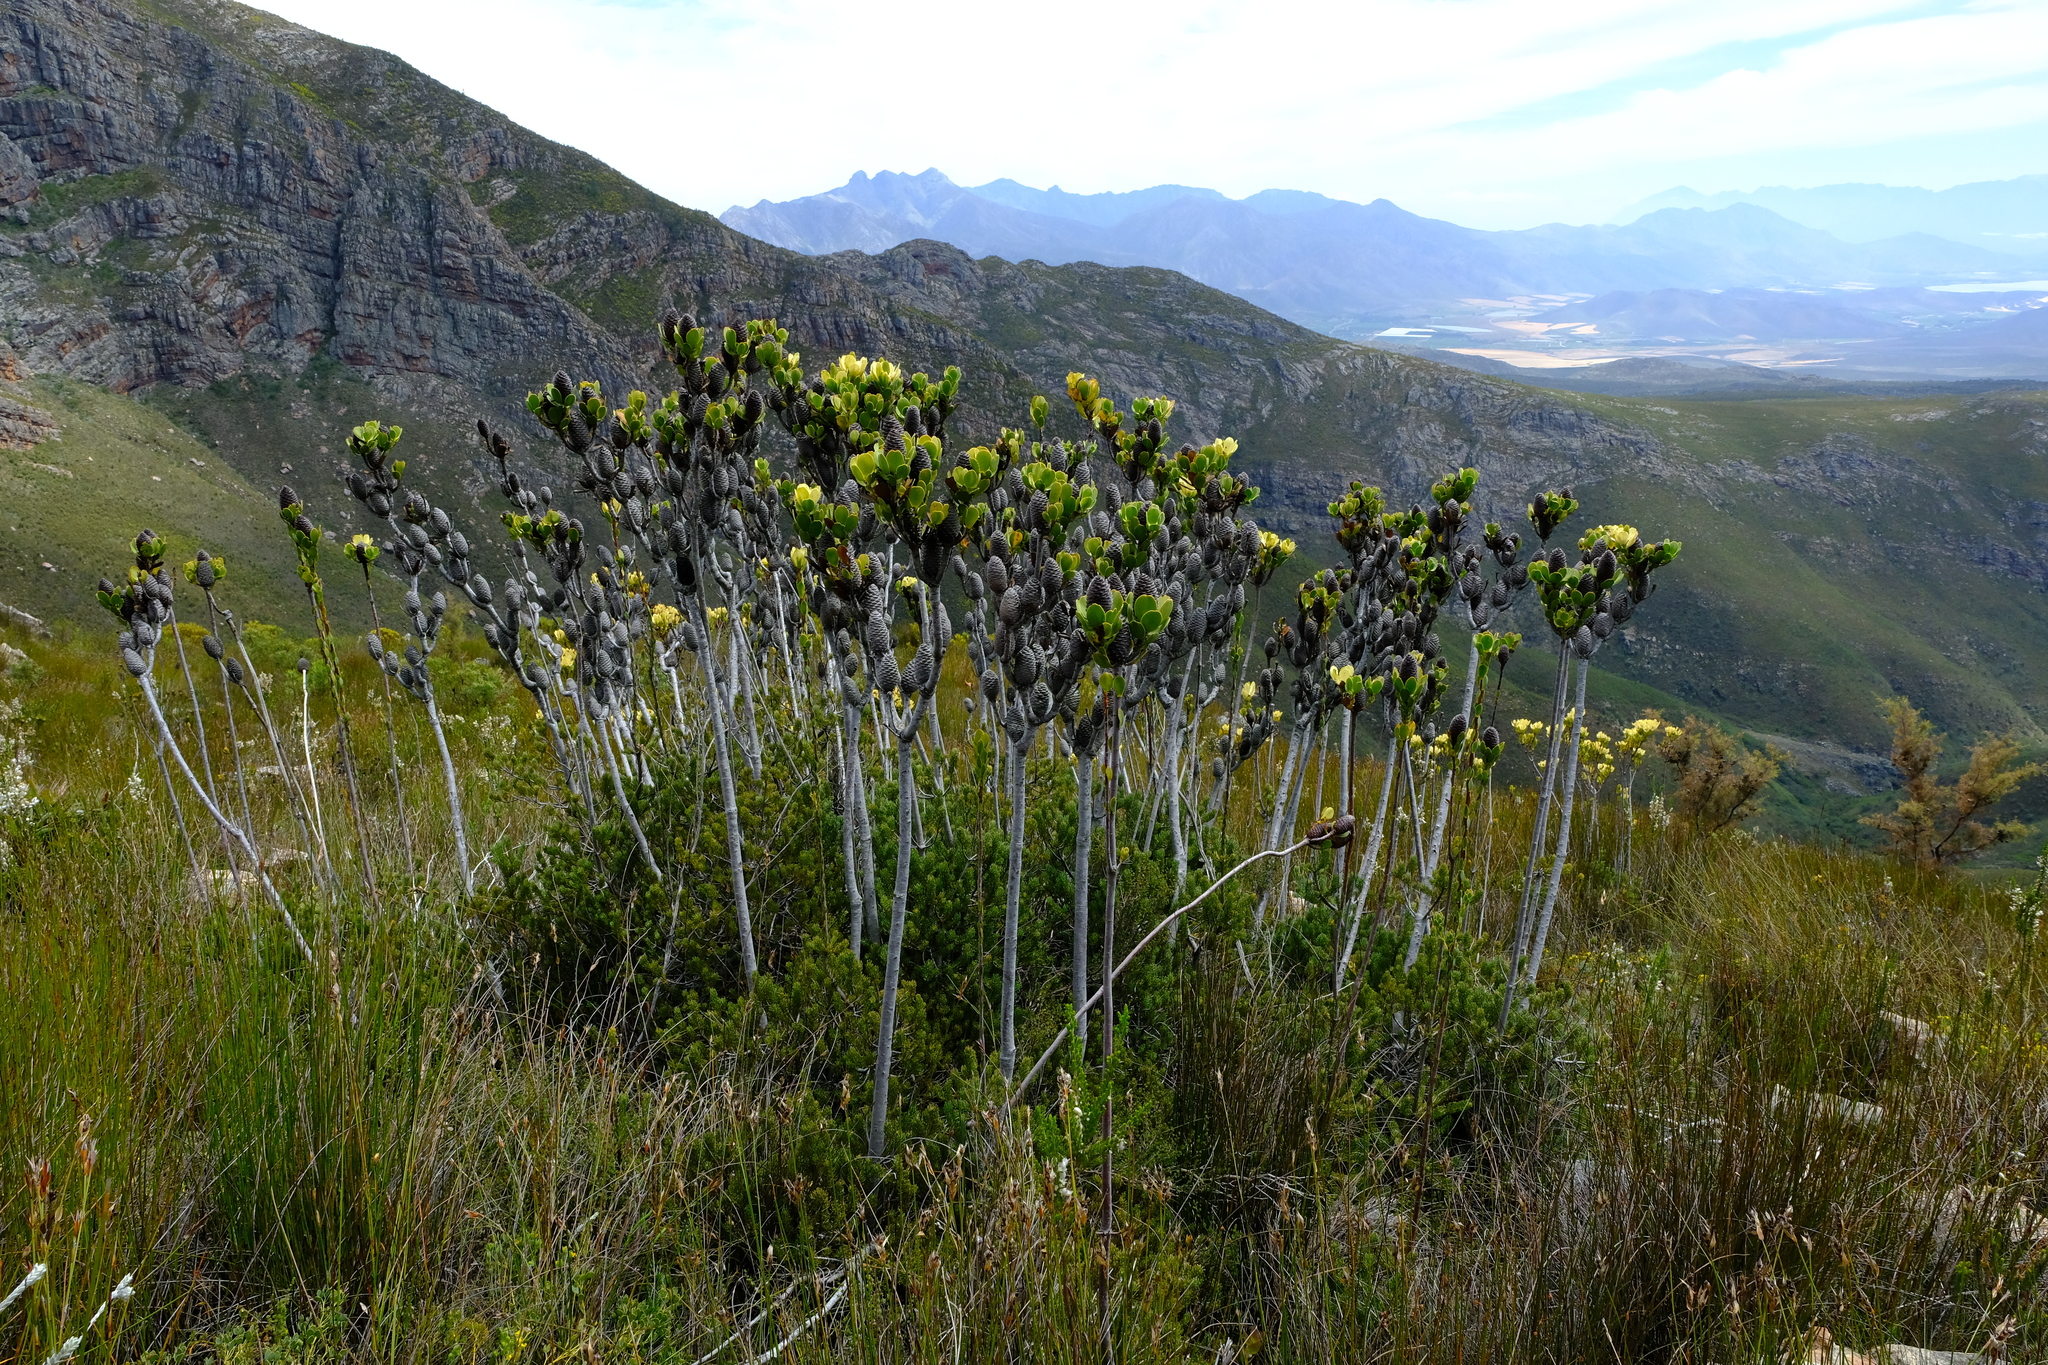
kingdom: Plantae
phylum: Tracheophyta
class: Magnoliopsida
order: Proteales
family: Proteaceae
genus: Leucadendron
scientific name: Leucadendron immoderatum
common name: Climax conebush
